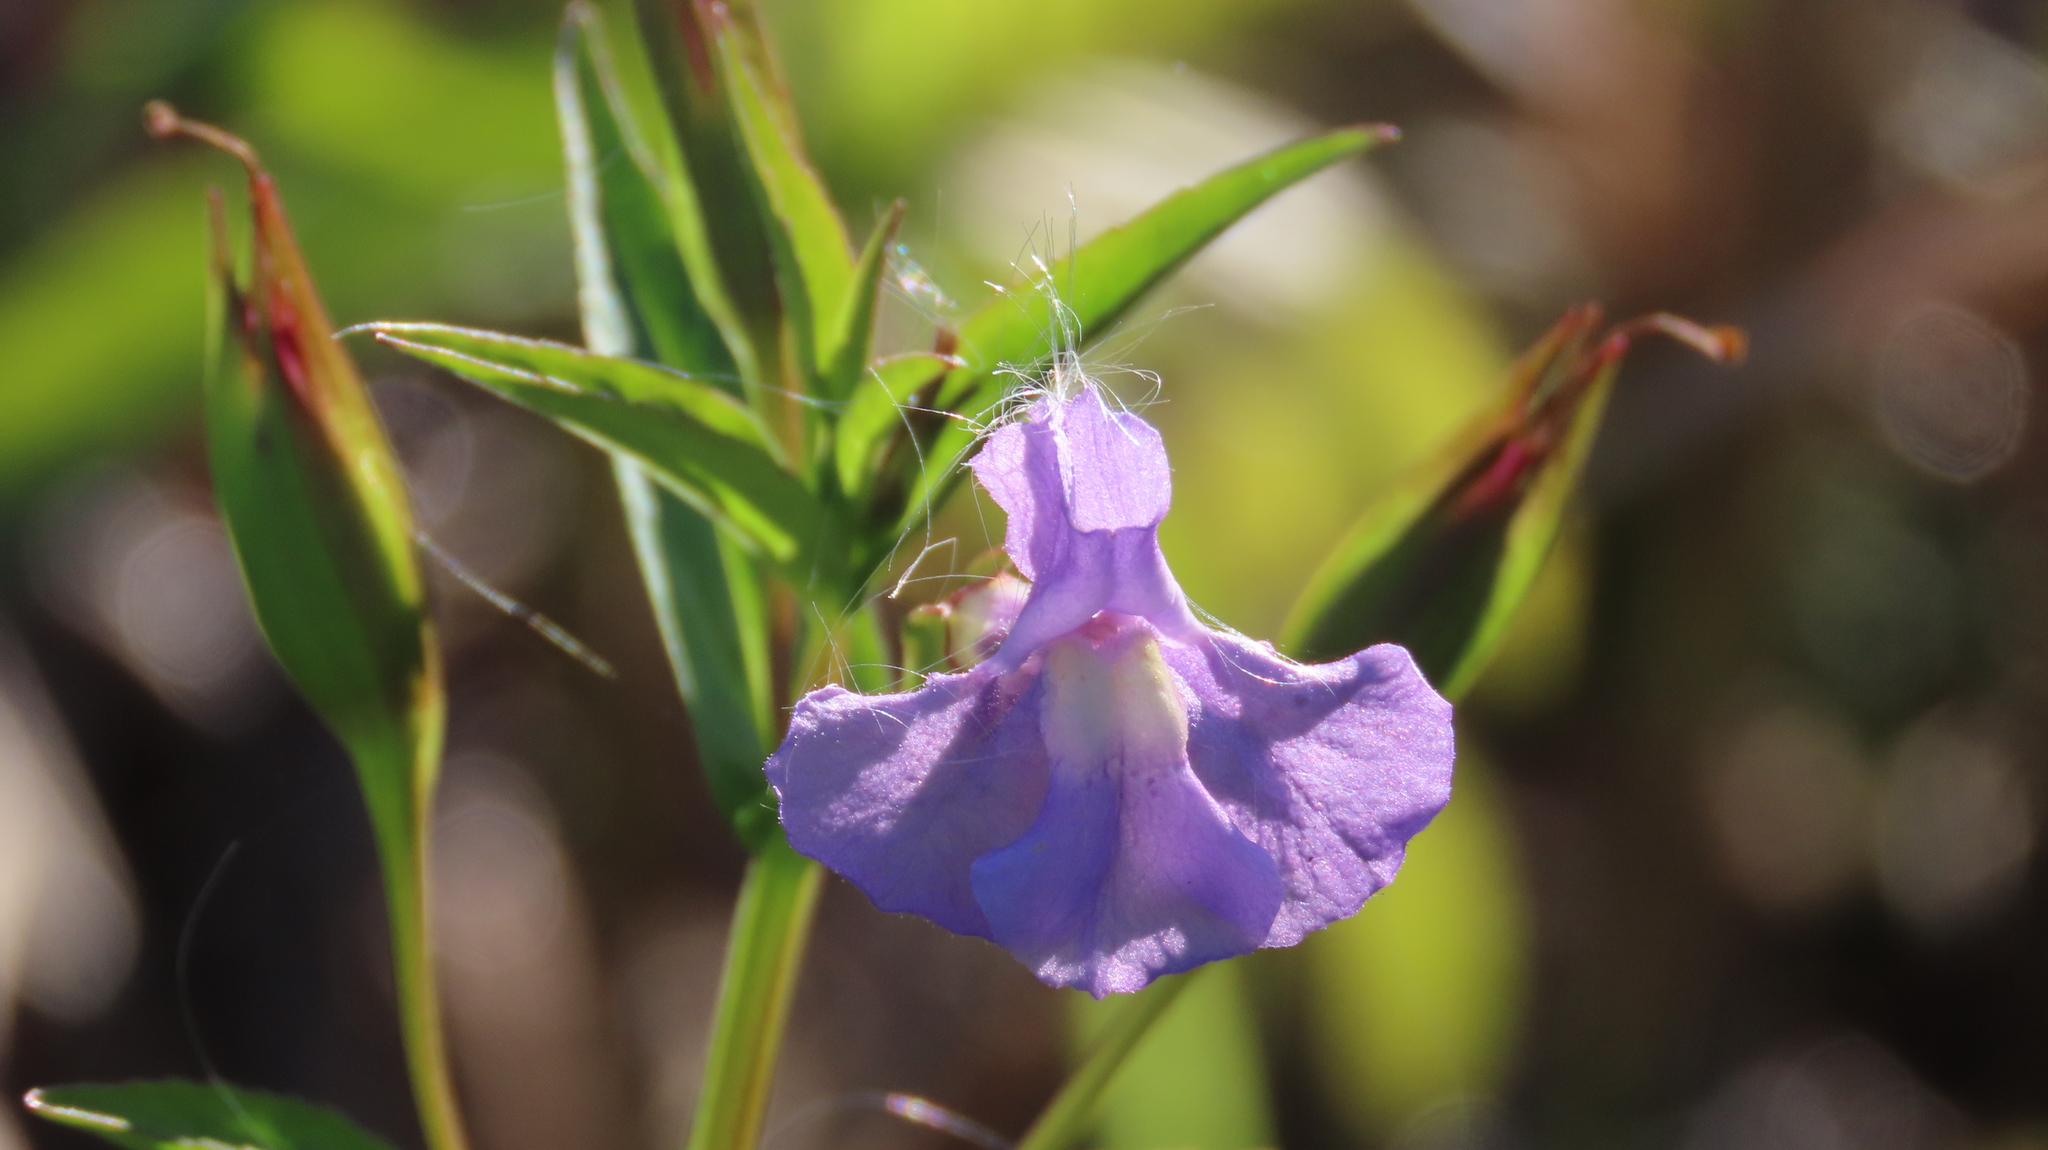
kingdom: Plantae
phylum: Tracheophyta
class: Magnoliopsida
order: Lamiales
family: Phrymaceae
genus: Mimulus
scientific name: Mimulus ringens
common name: Allegheny monkeyflower
